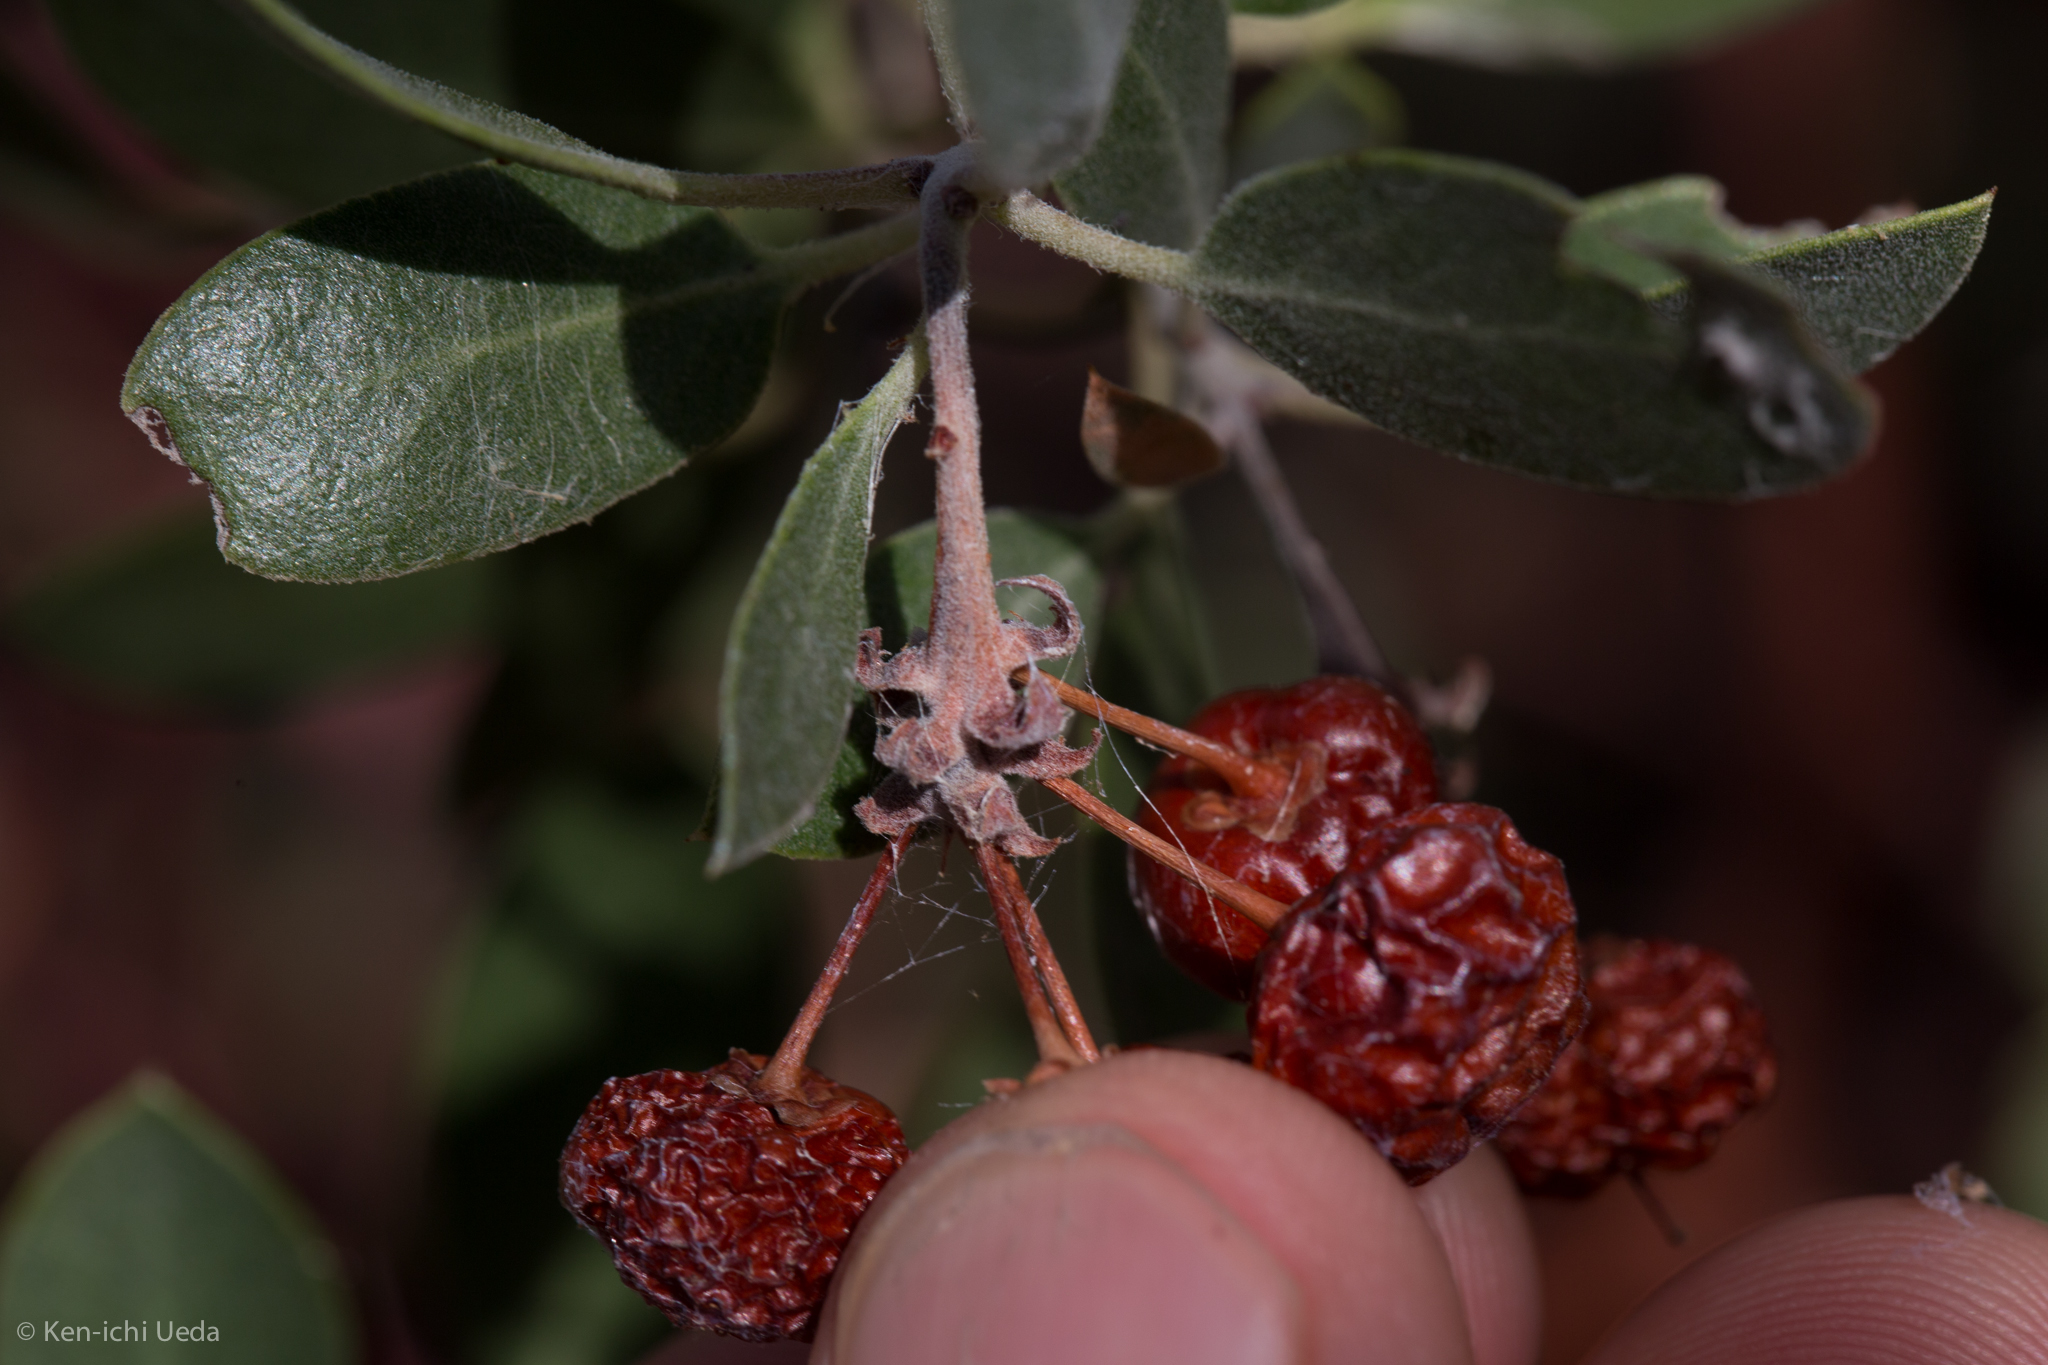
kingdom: Plantae
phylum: Tracheophyta
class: Magnoliopsida
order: Ericales
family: Ericaceae
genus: Arctostaphylos
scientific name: Arctostaphylos pungens
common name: Mexican manzanita
